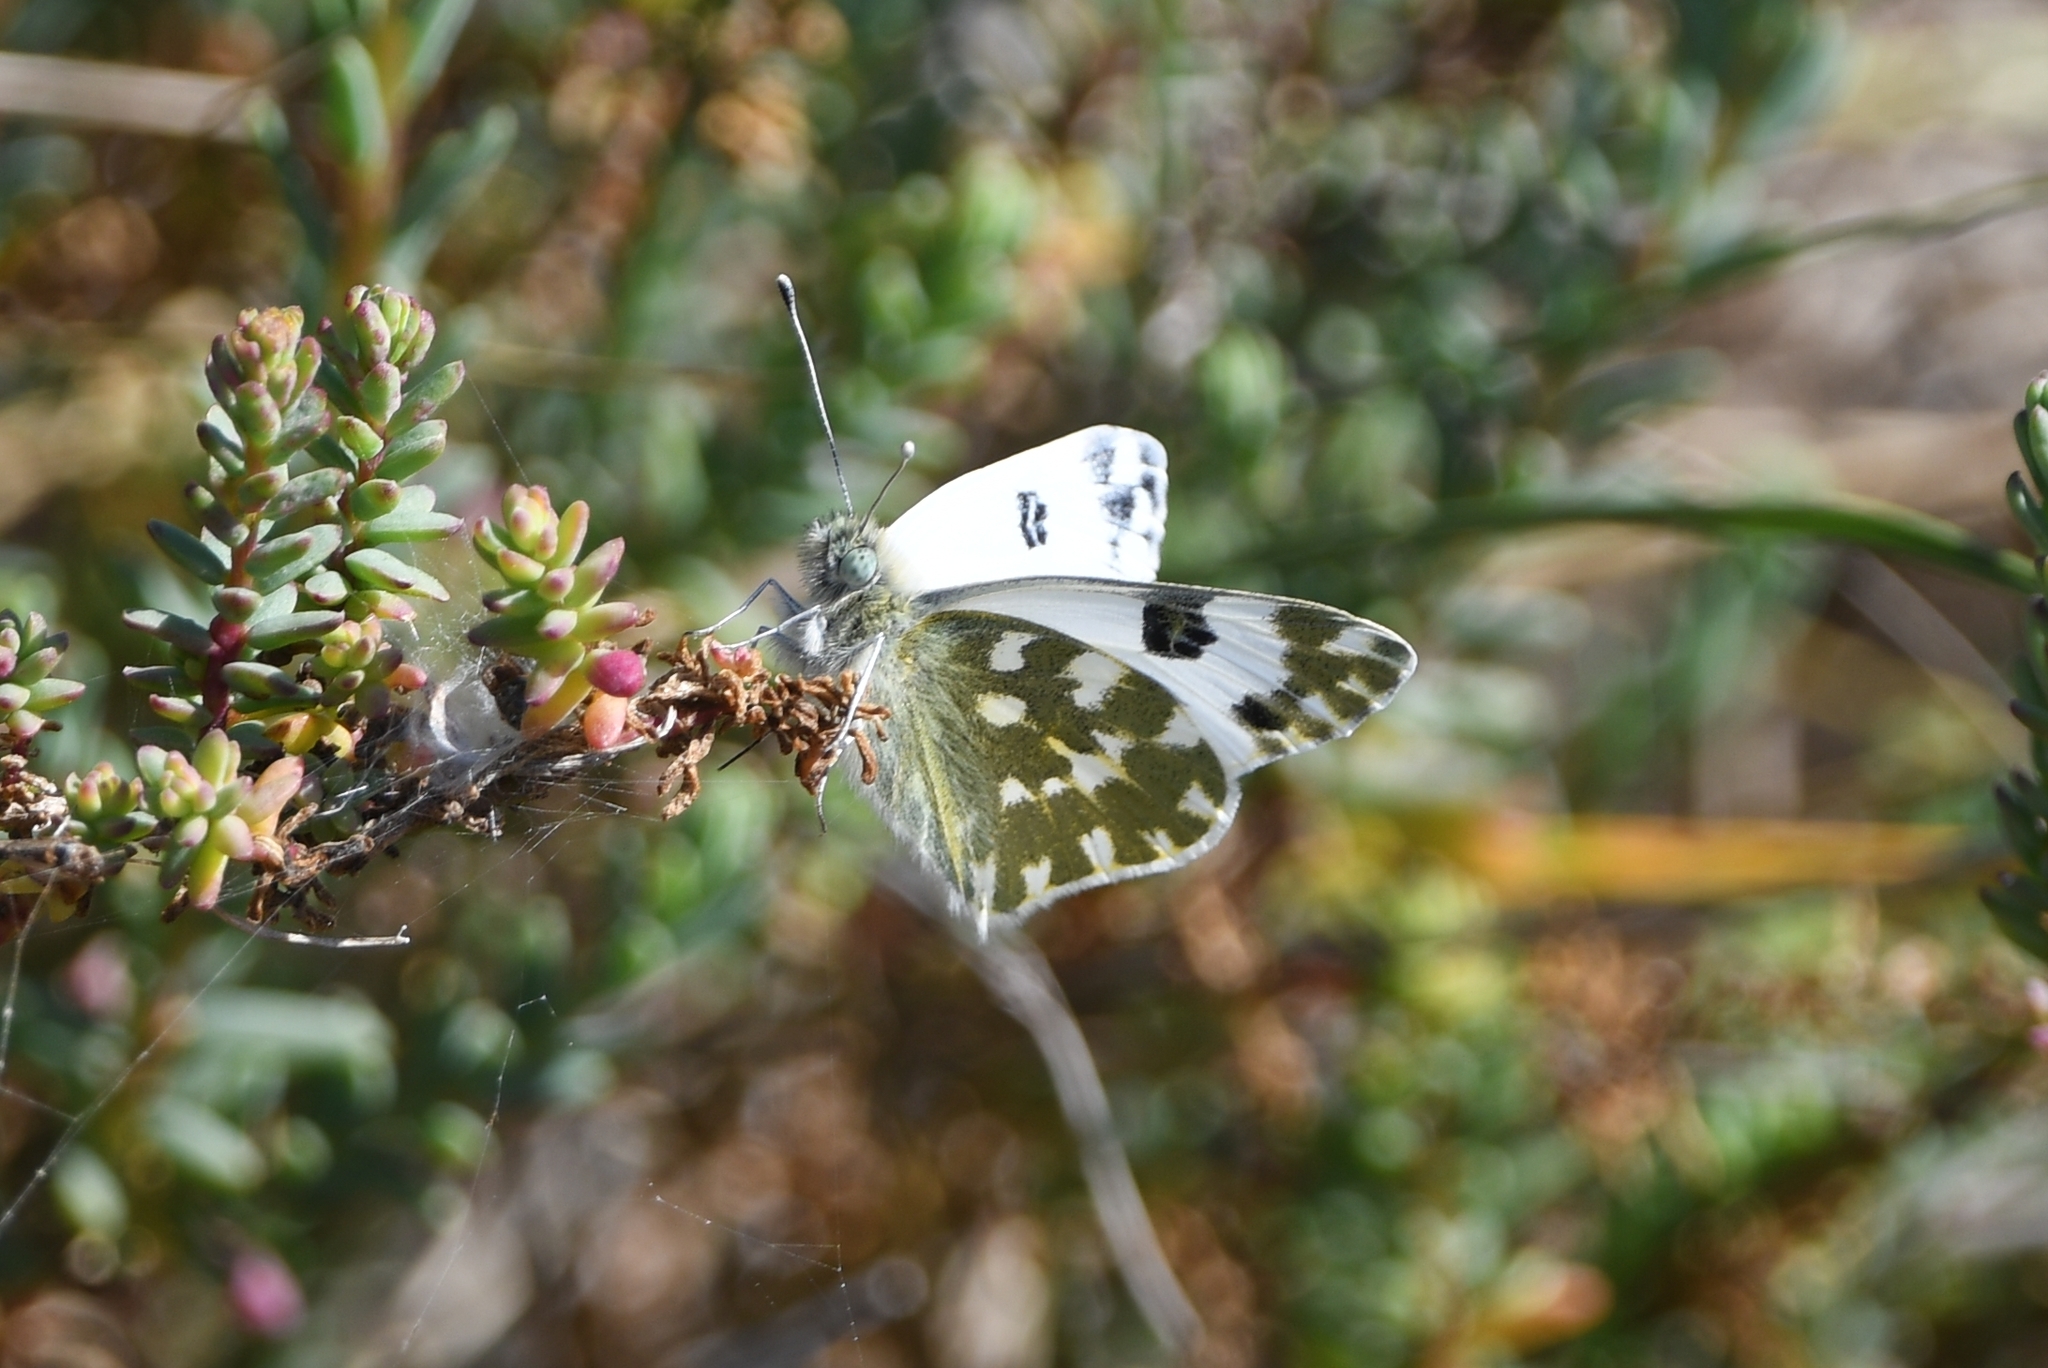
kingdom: Animalia
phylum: Arthropoda
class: Insecta
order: Lepidoptera
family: Pieridae
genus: Pontia
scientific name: Pontia daplidice
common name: Bath white
